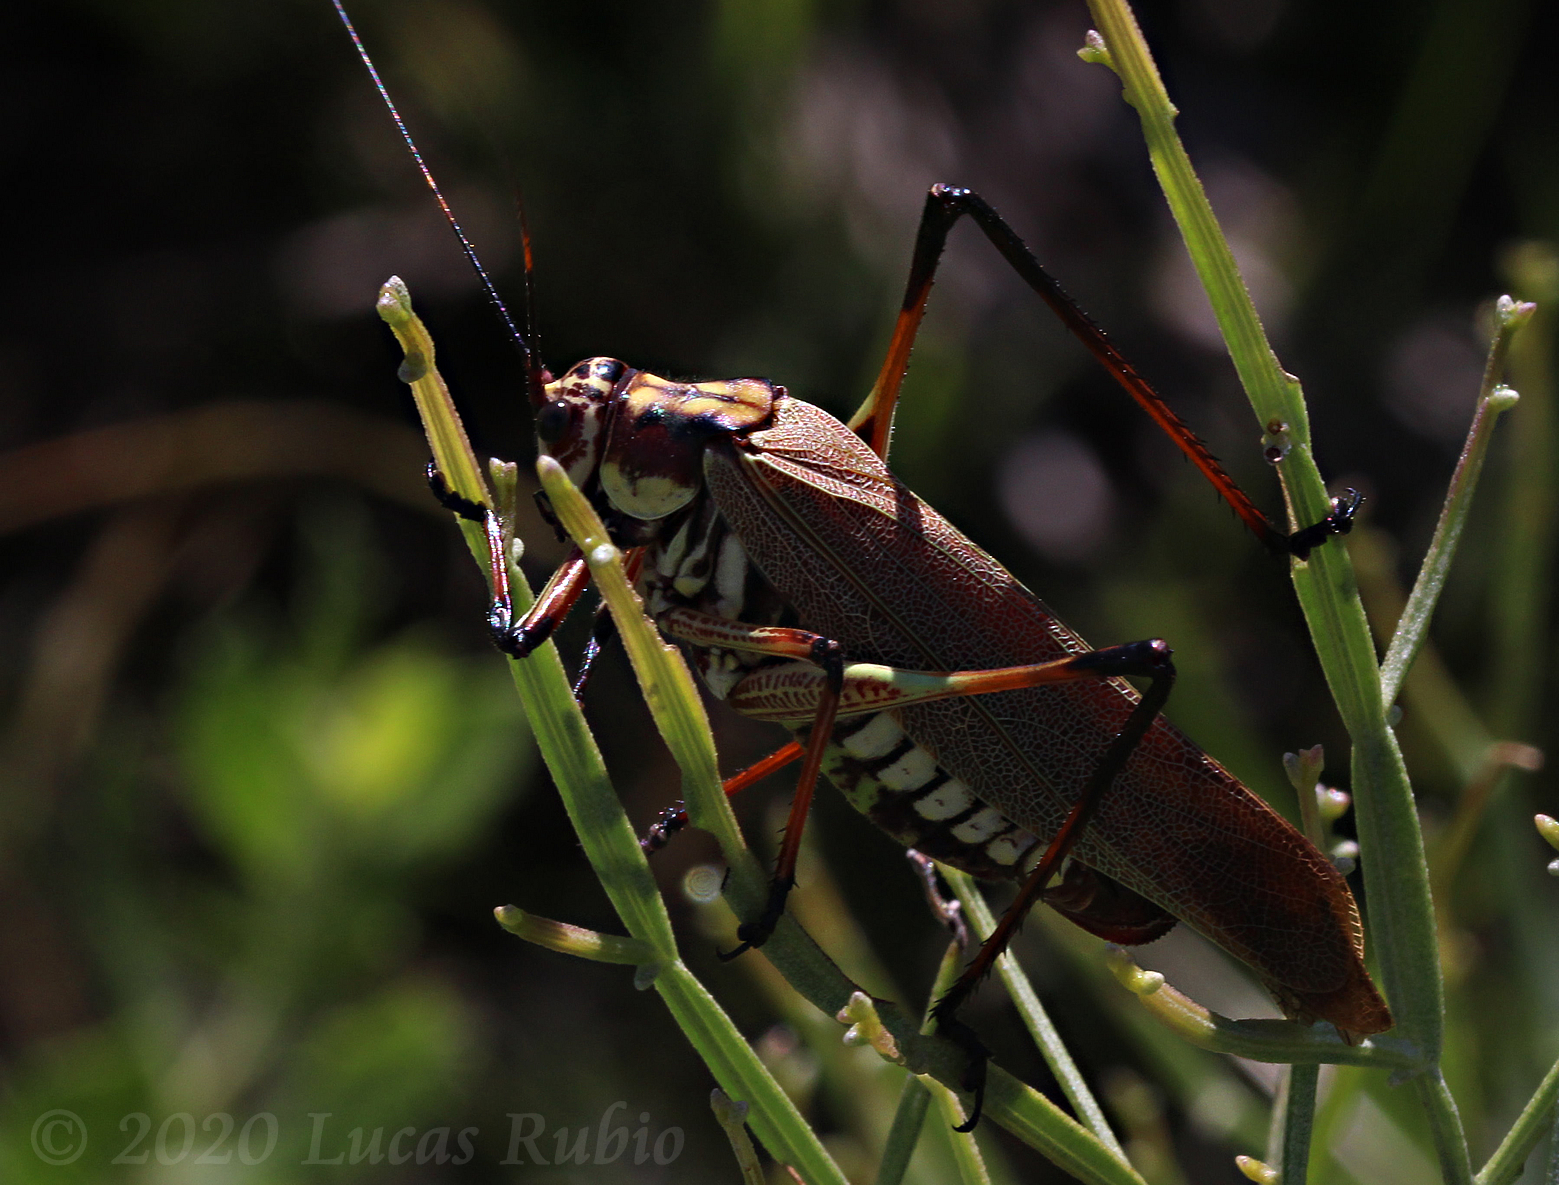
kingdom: Animalia
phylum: Arthropoda
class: Insecta
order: Orthoptera
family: Tettigoniidae
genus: Scaphura
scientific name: Scaphura elegans
